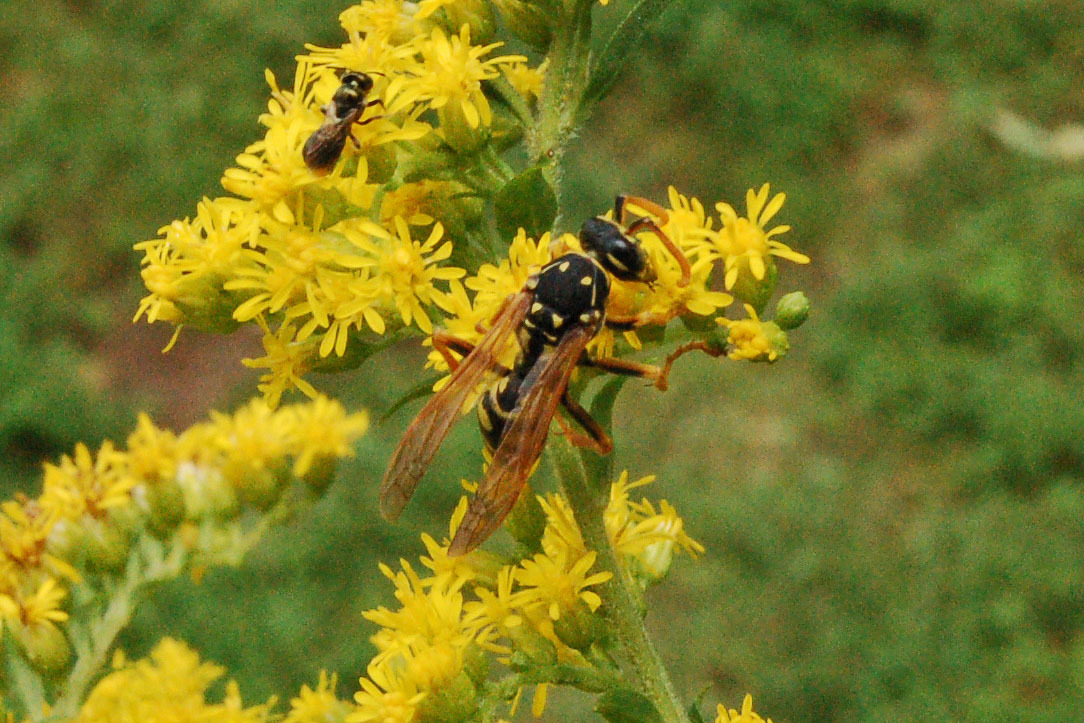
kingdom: Animalia
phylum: Arthropoda
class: Insecta
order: Hymenoptera
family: Eumenidae
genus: Polistes
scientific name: Polistes dominula
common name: Paper wasp
